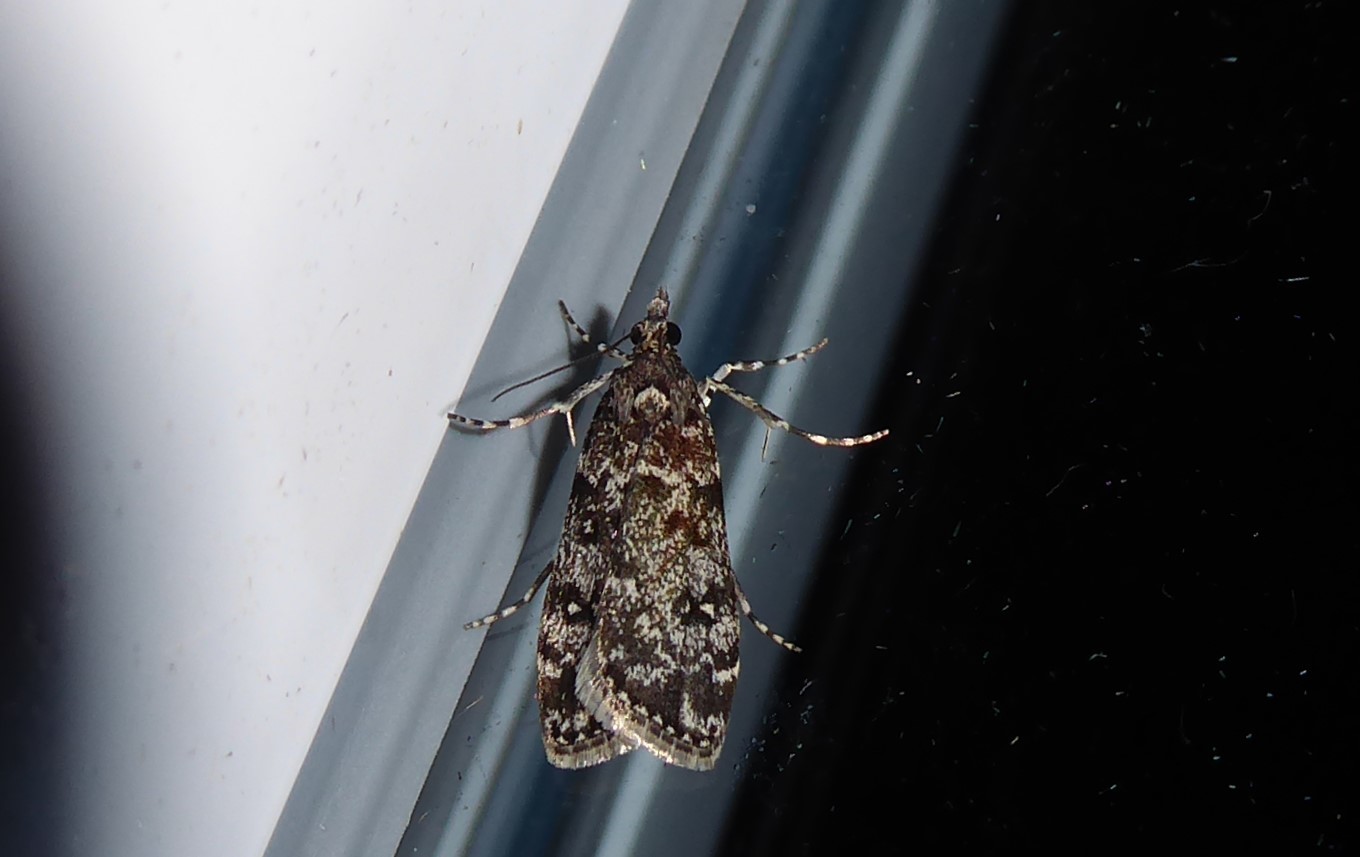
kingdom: Animalia
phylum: Arthropoda
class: Insecta
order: Lepidoptera
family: Crambidae
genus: Eudonia
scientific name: Eudonia philerga
